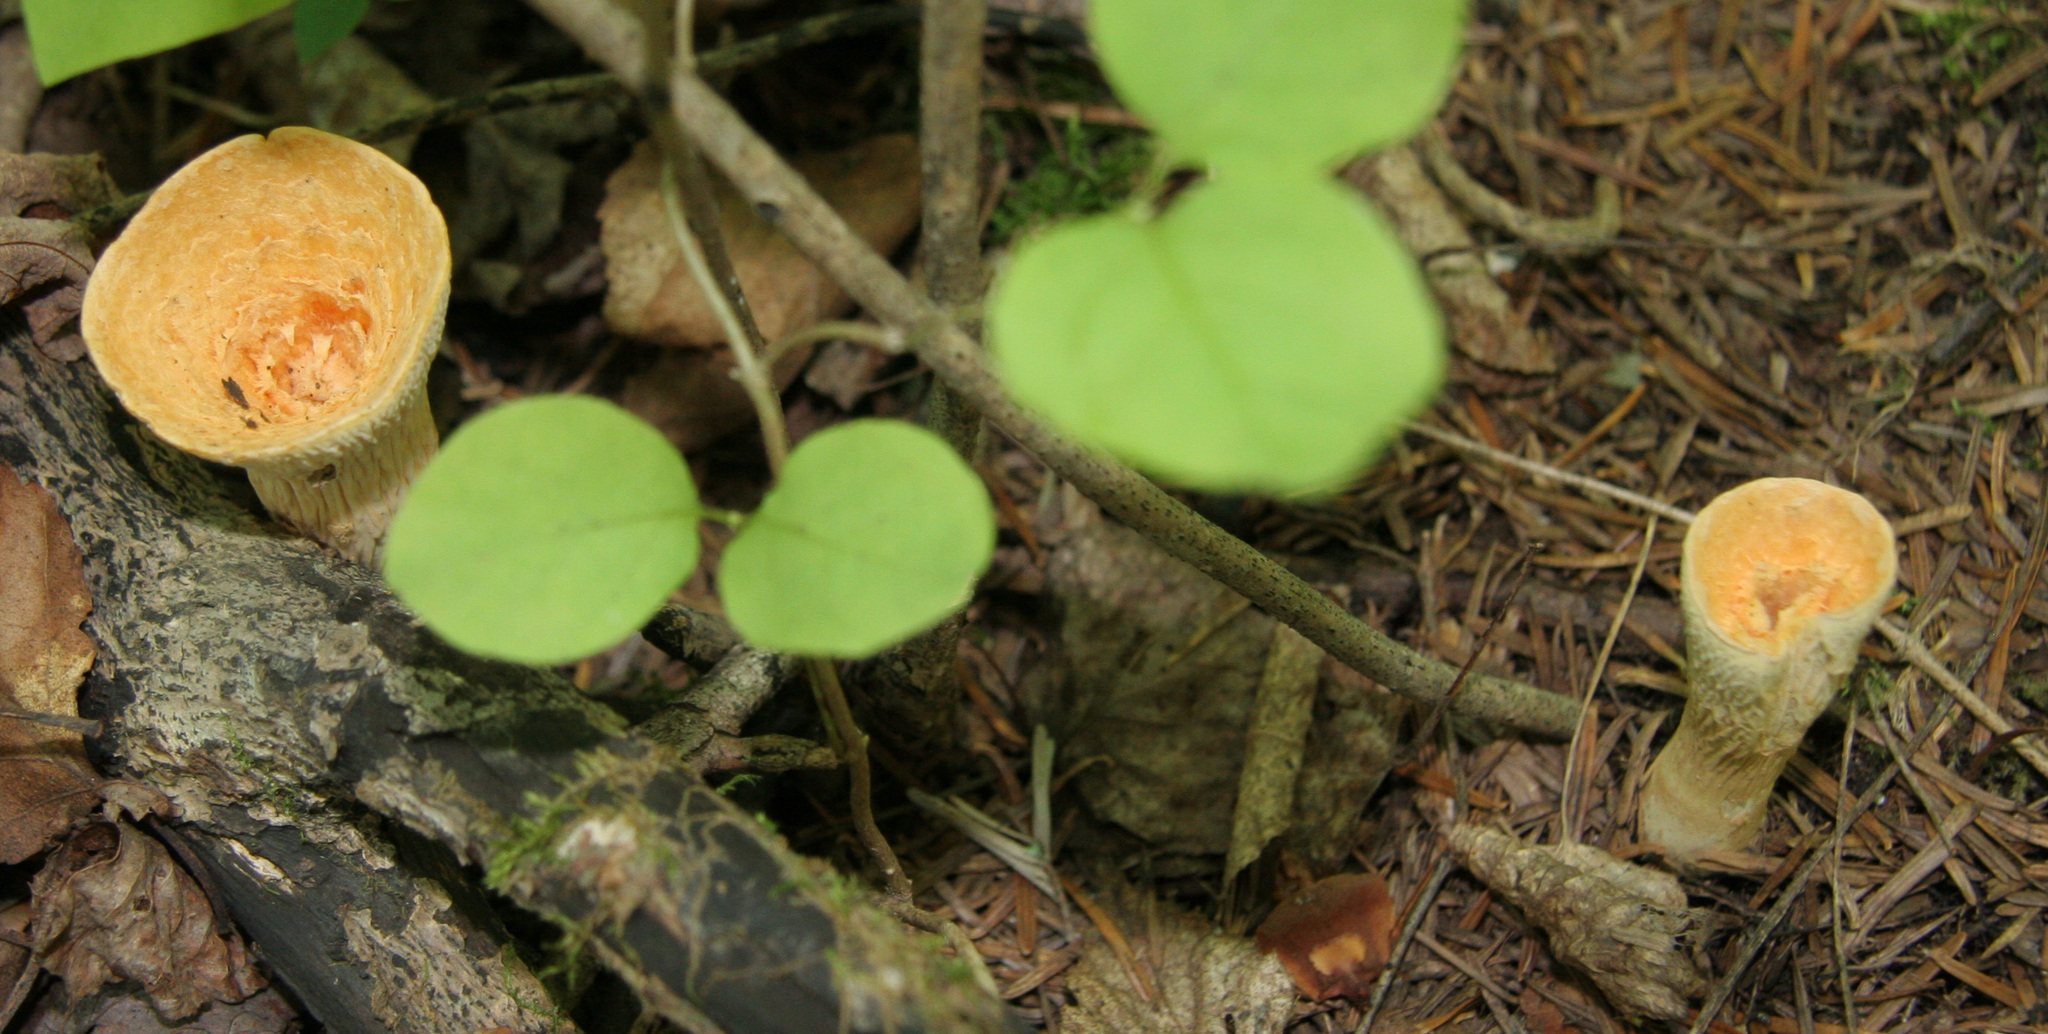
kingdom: Fungi
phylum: Basidiomycota
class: Agaricomycetes
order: Gomphales
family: Gomphaceae
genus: Turbinellus
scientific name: Turbinellus floccosus
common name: Scaly chanterelle
